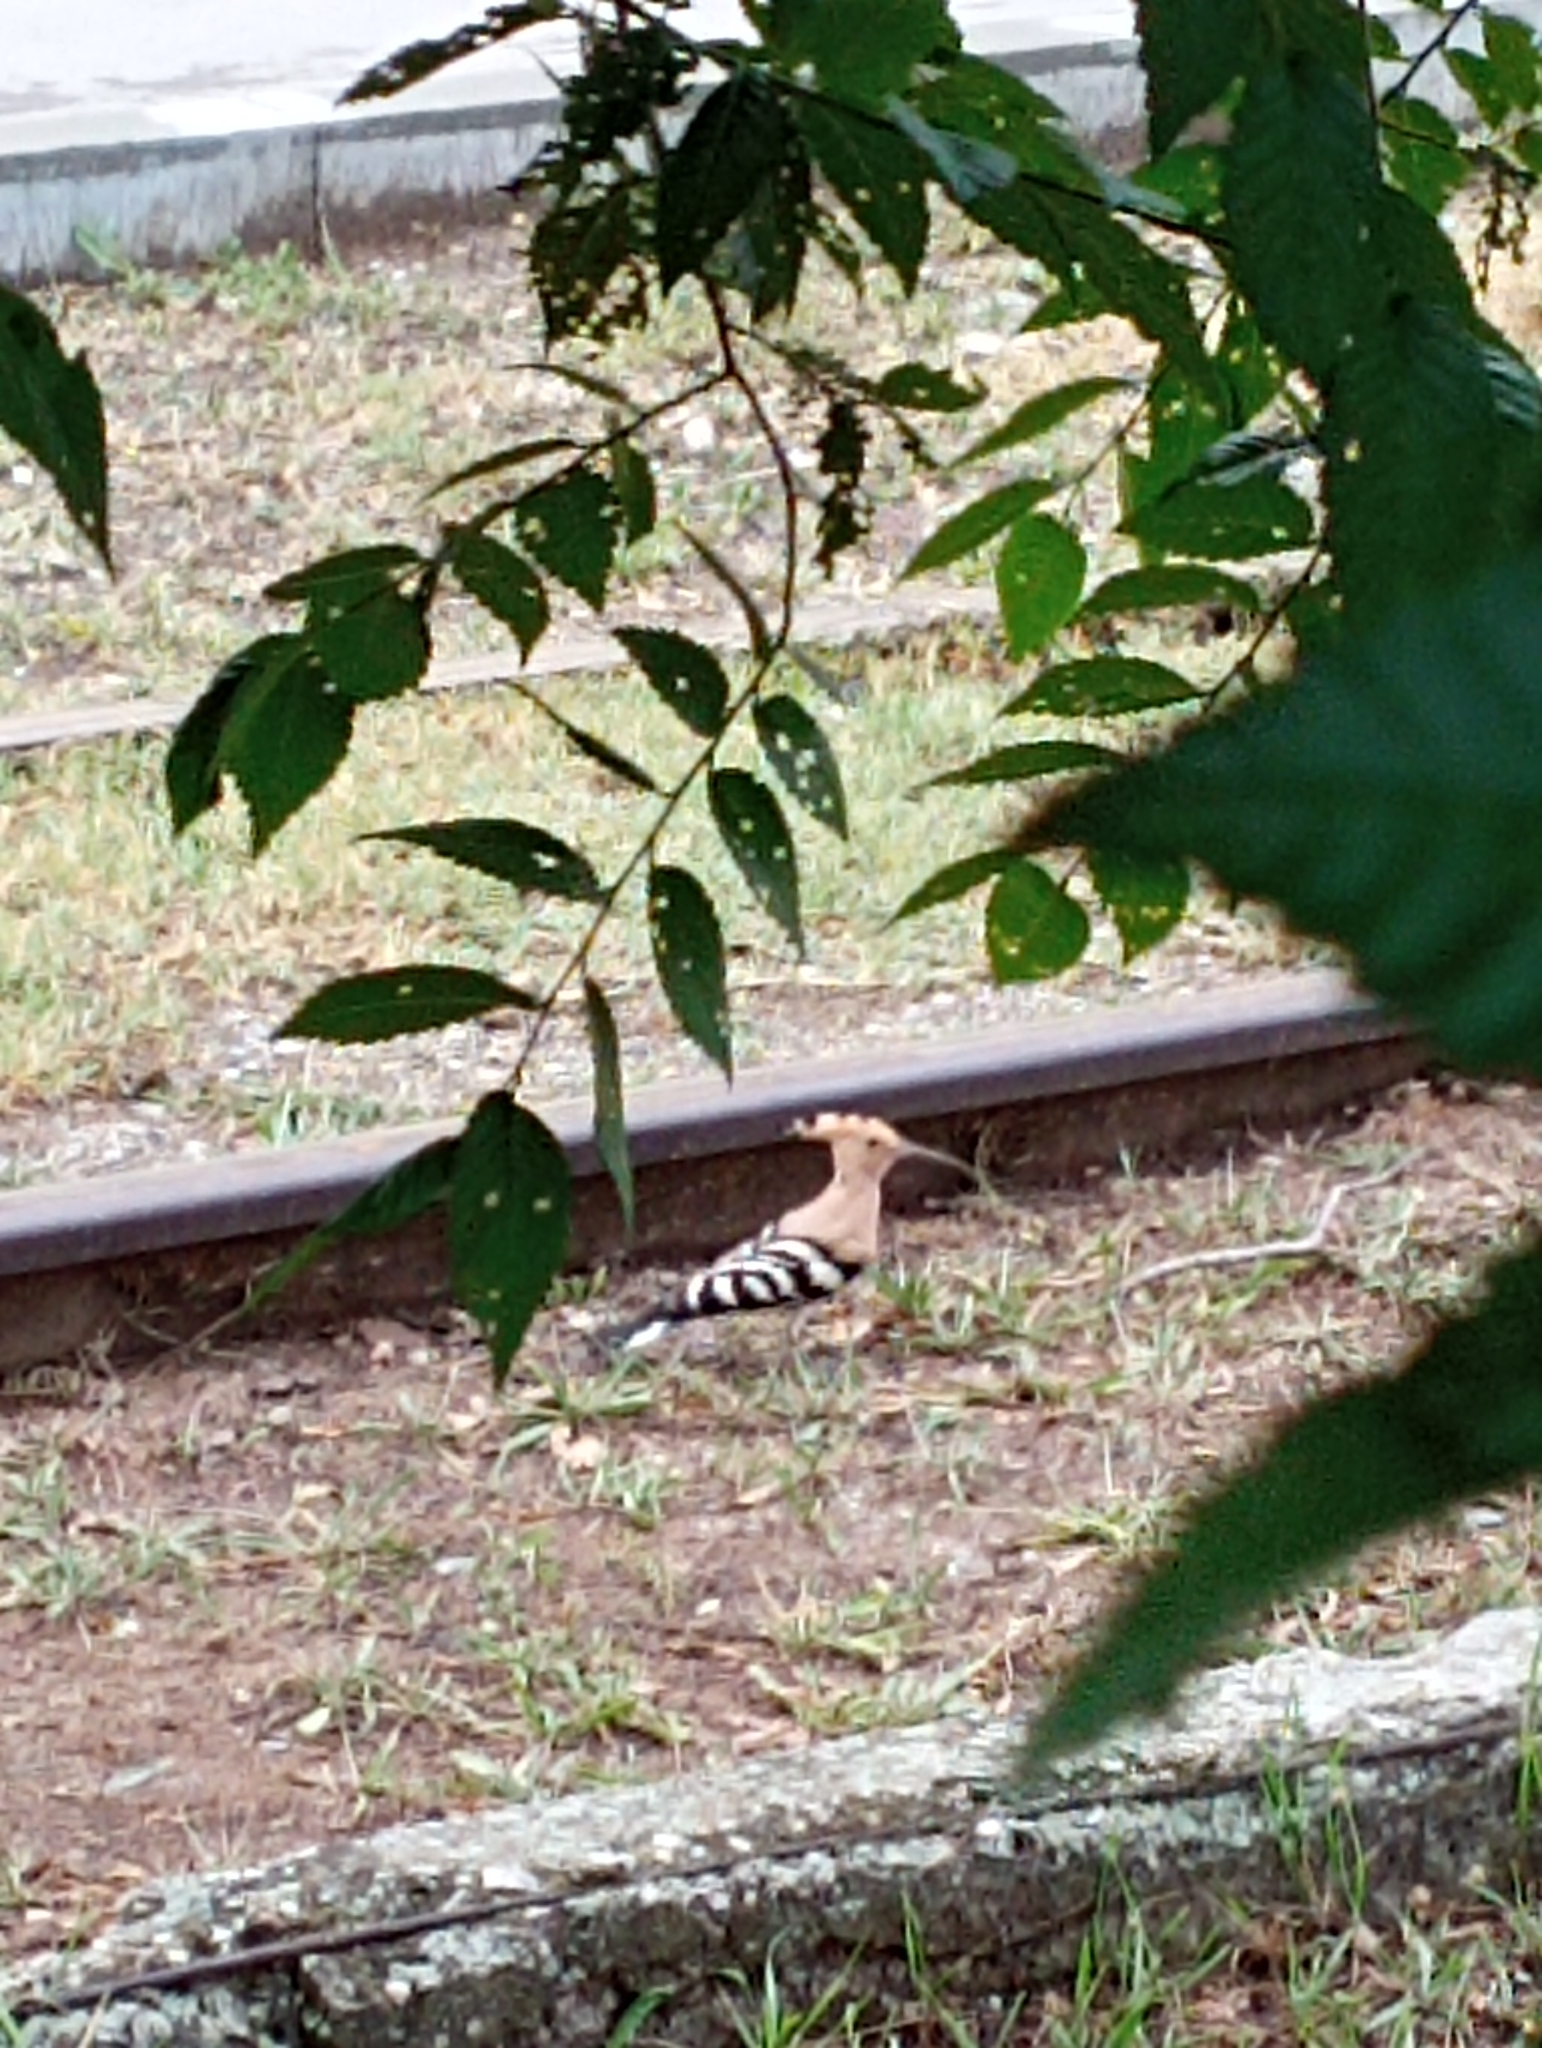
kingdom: Animalia
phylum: Chordata
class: Aves
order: Bucerotiformes
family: Upupidae
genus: Upupa
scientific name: Upupa epops
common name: Eurasian hoopoe
